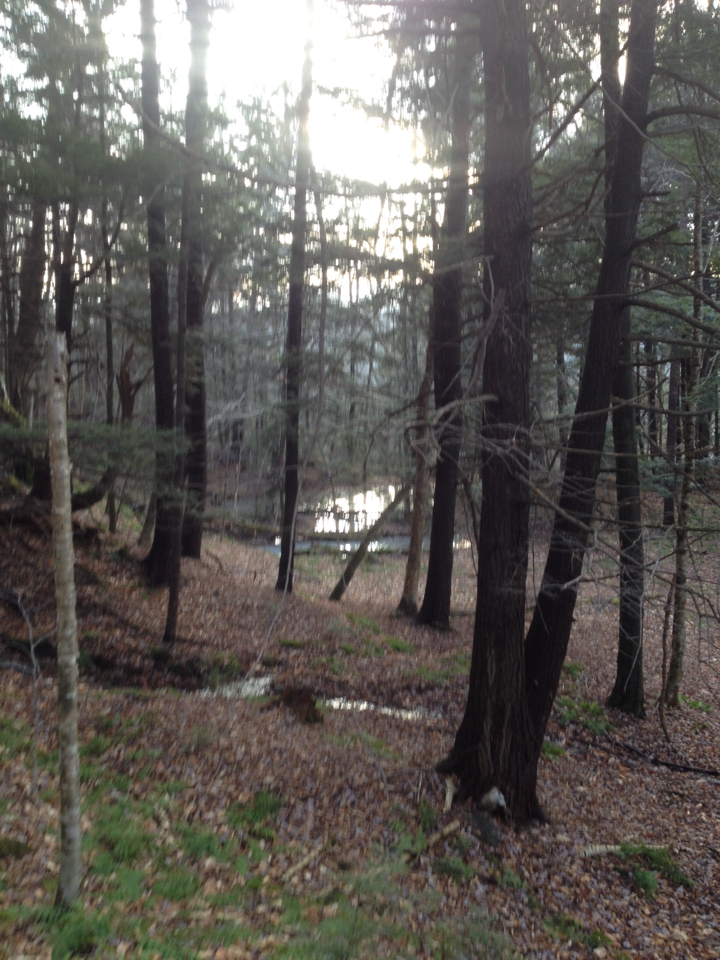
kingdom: Plantae
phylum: Tracheophyta
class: Pinopsida
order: Pinales
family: Pinaceae
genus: Tsuga
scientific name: Tsuga canadensis
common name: Eastern hemlock
